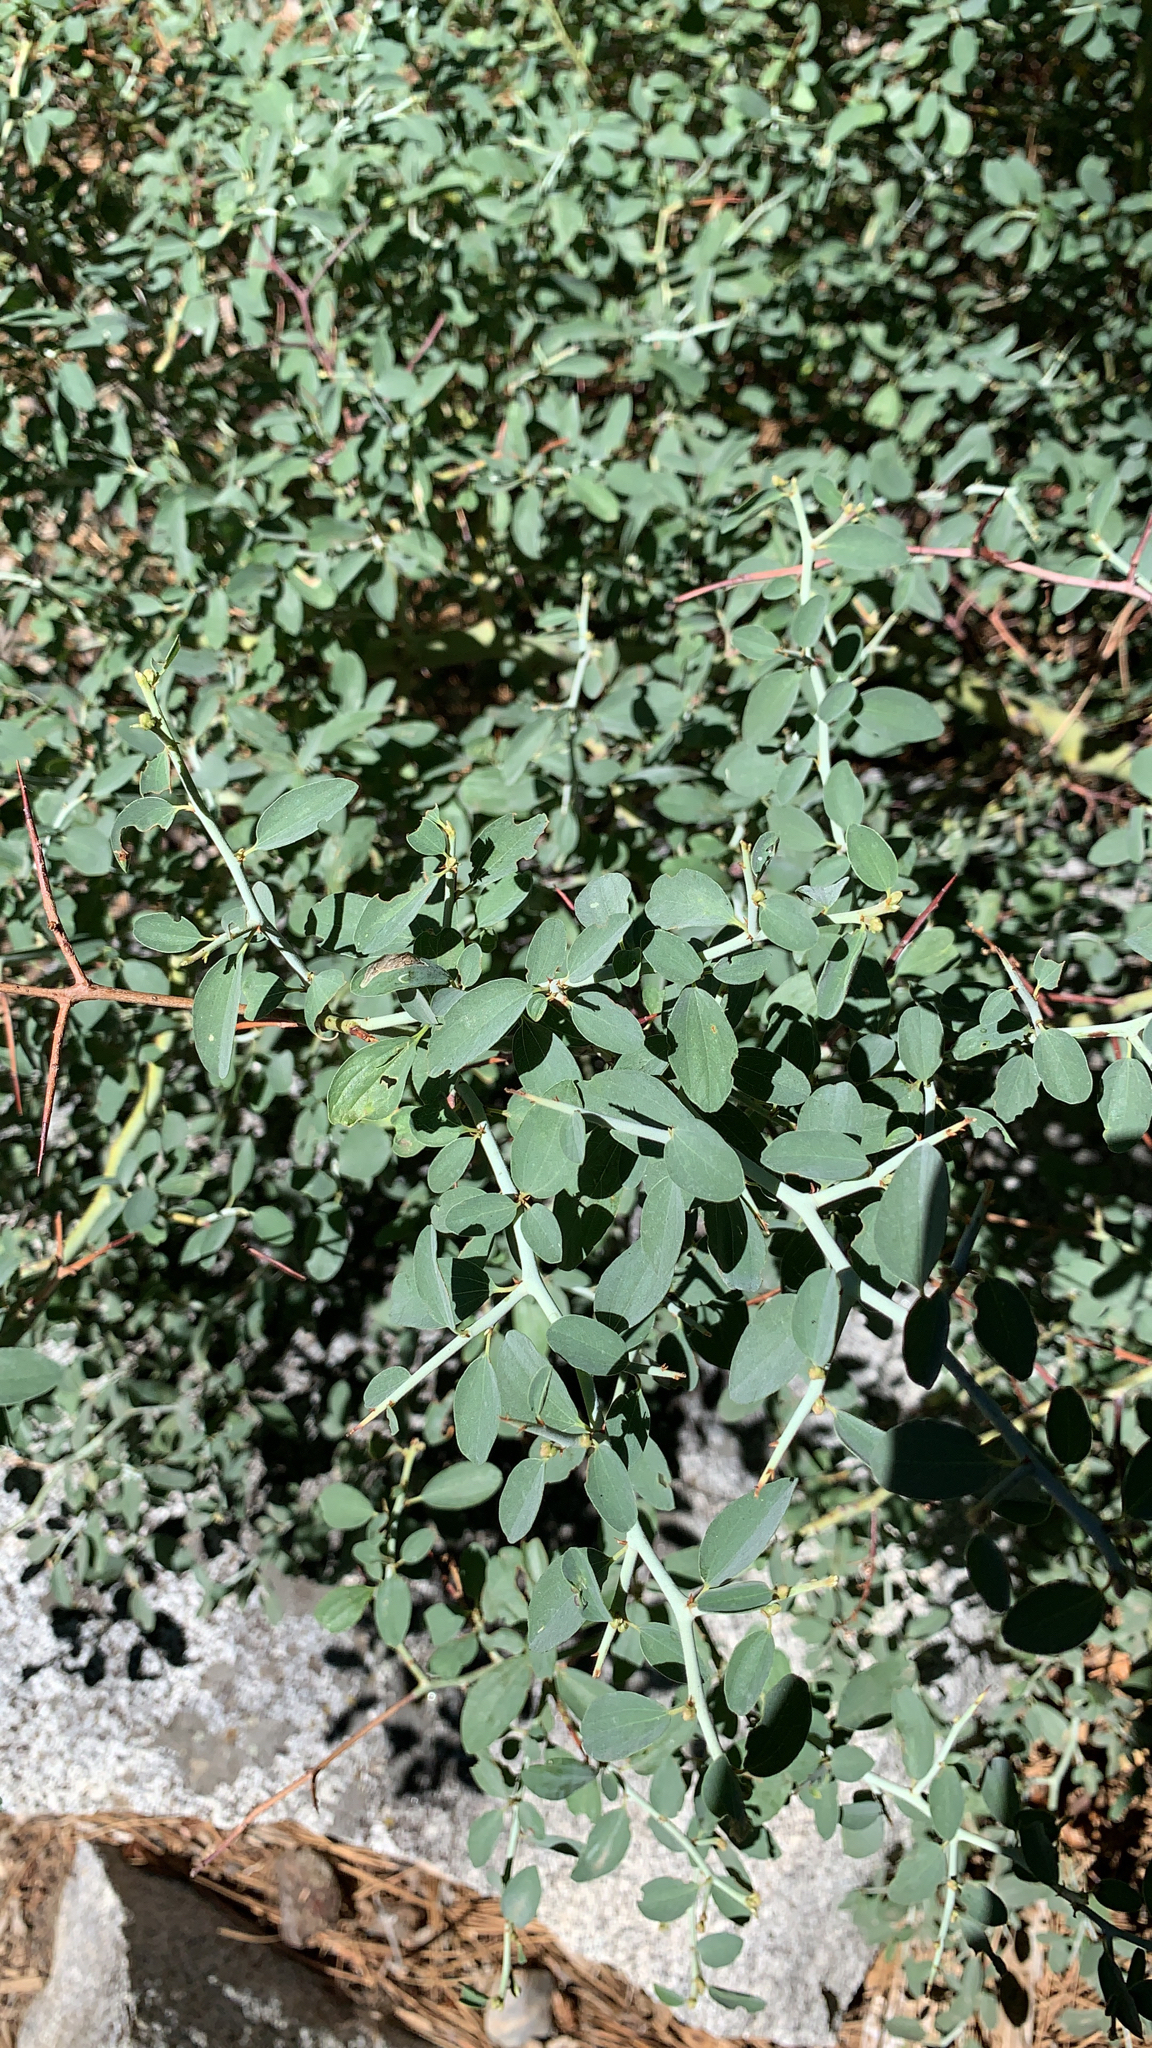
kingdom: Plantae
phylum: Tracheophyta
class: Magnoliopsida
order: Rosales
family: Rhamnaceae
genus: Ceanothus
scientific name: Ceanothus cordulatus
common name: Mountain whitethorn
